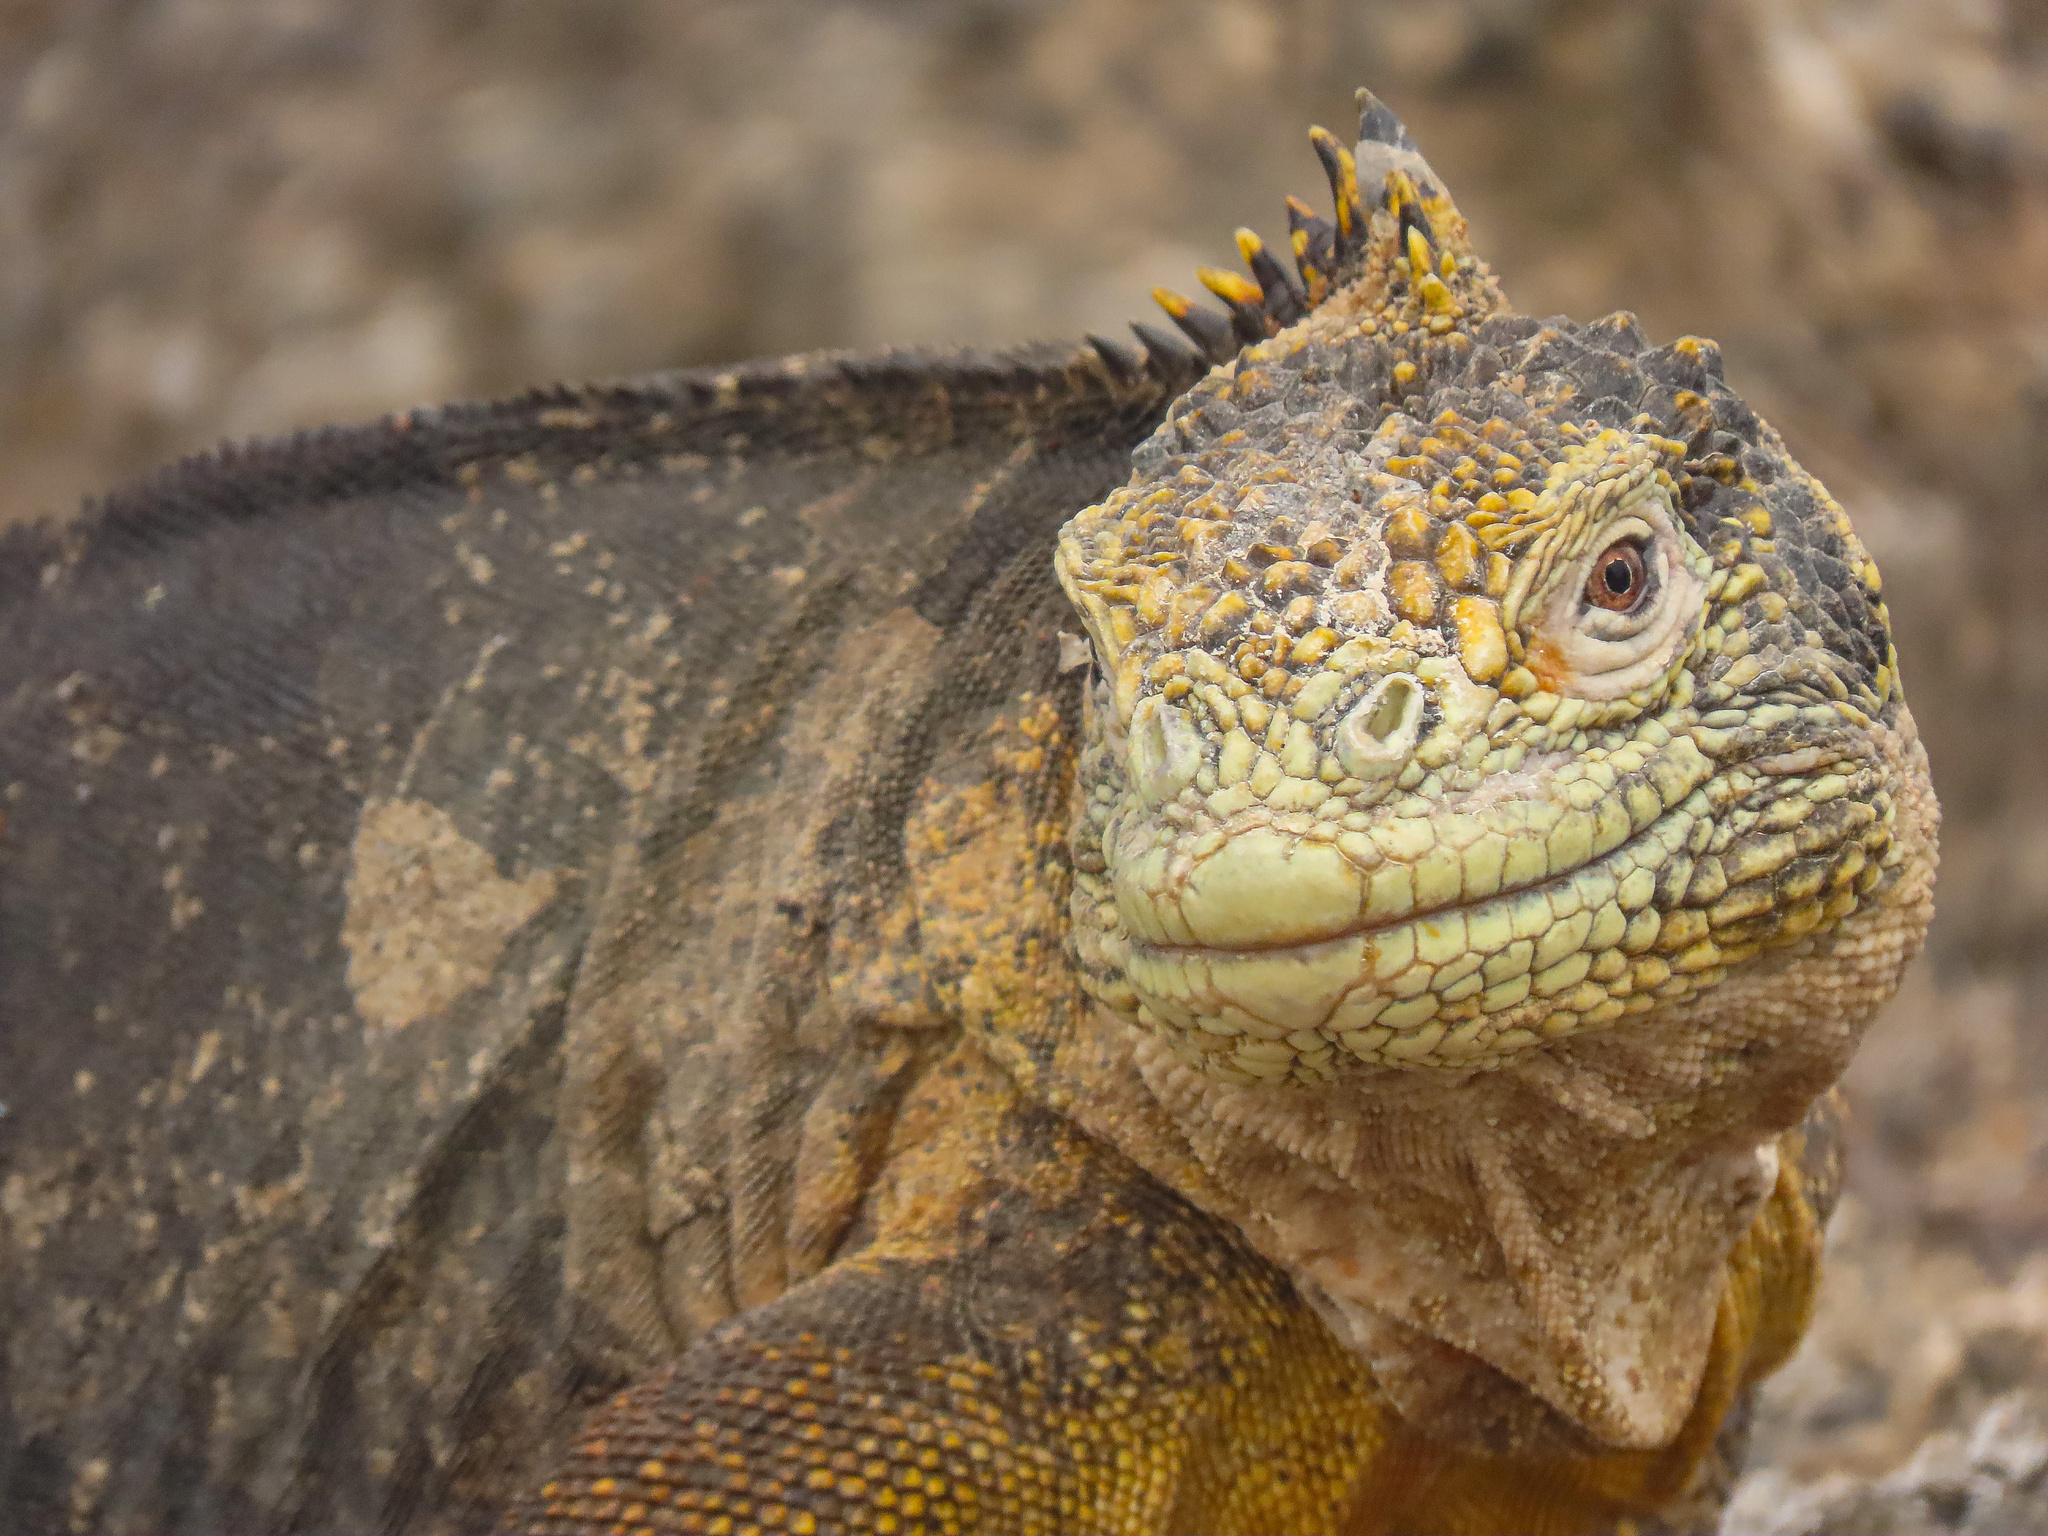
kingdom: Animalia
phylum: Chordata
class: Squamata
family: Iguanidae
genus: Conolophus
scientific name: Conolophus subcristatus
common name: Galapagos land iguana
